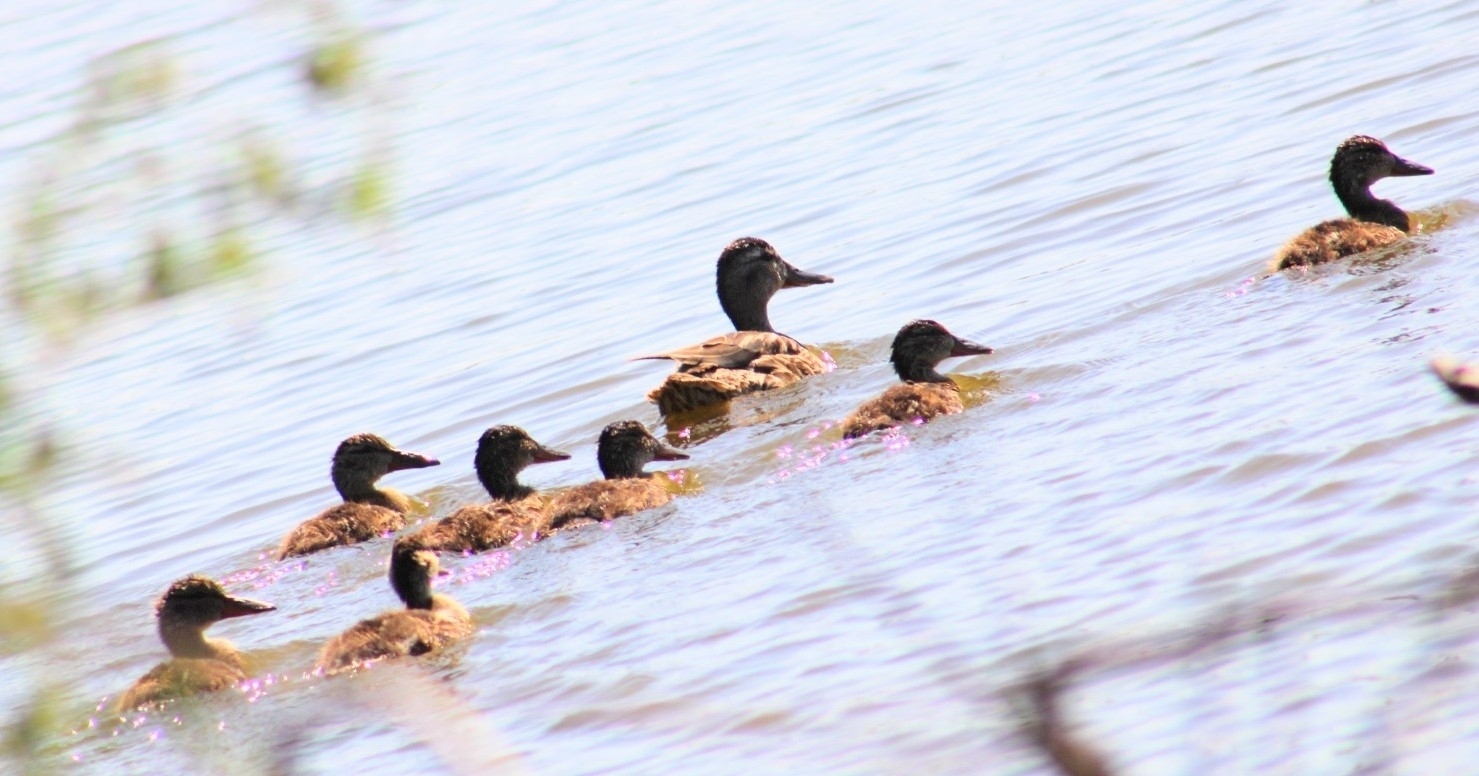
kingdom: Animalia
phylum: Chordata
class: Aves
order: Anseriformes
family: Anatidae
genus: Anas
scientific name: Anas platyrhynchos
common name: Mallard
